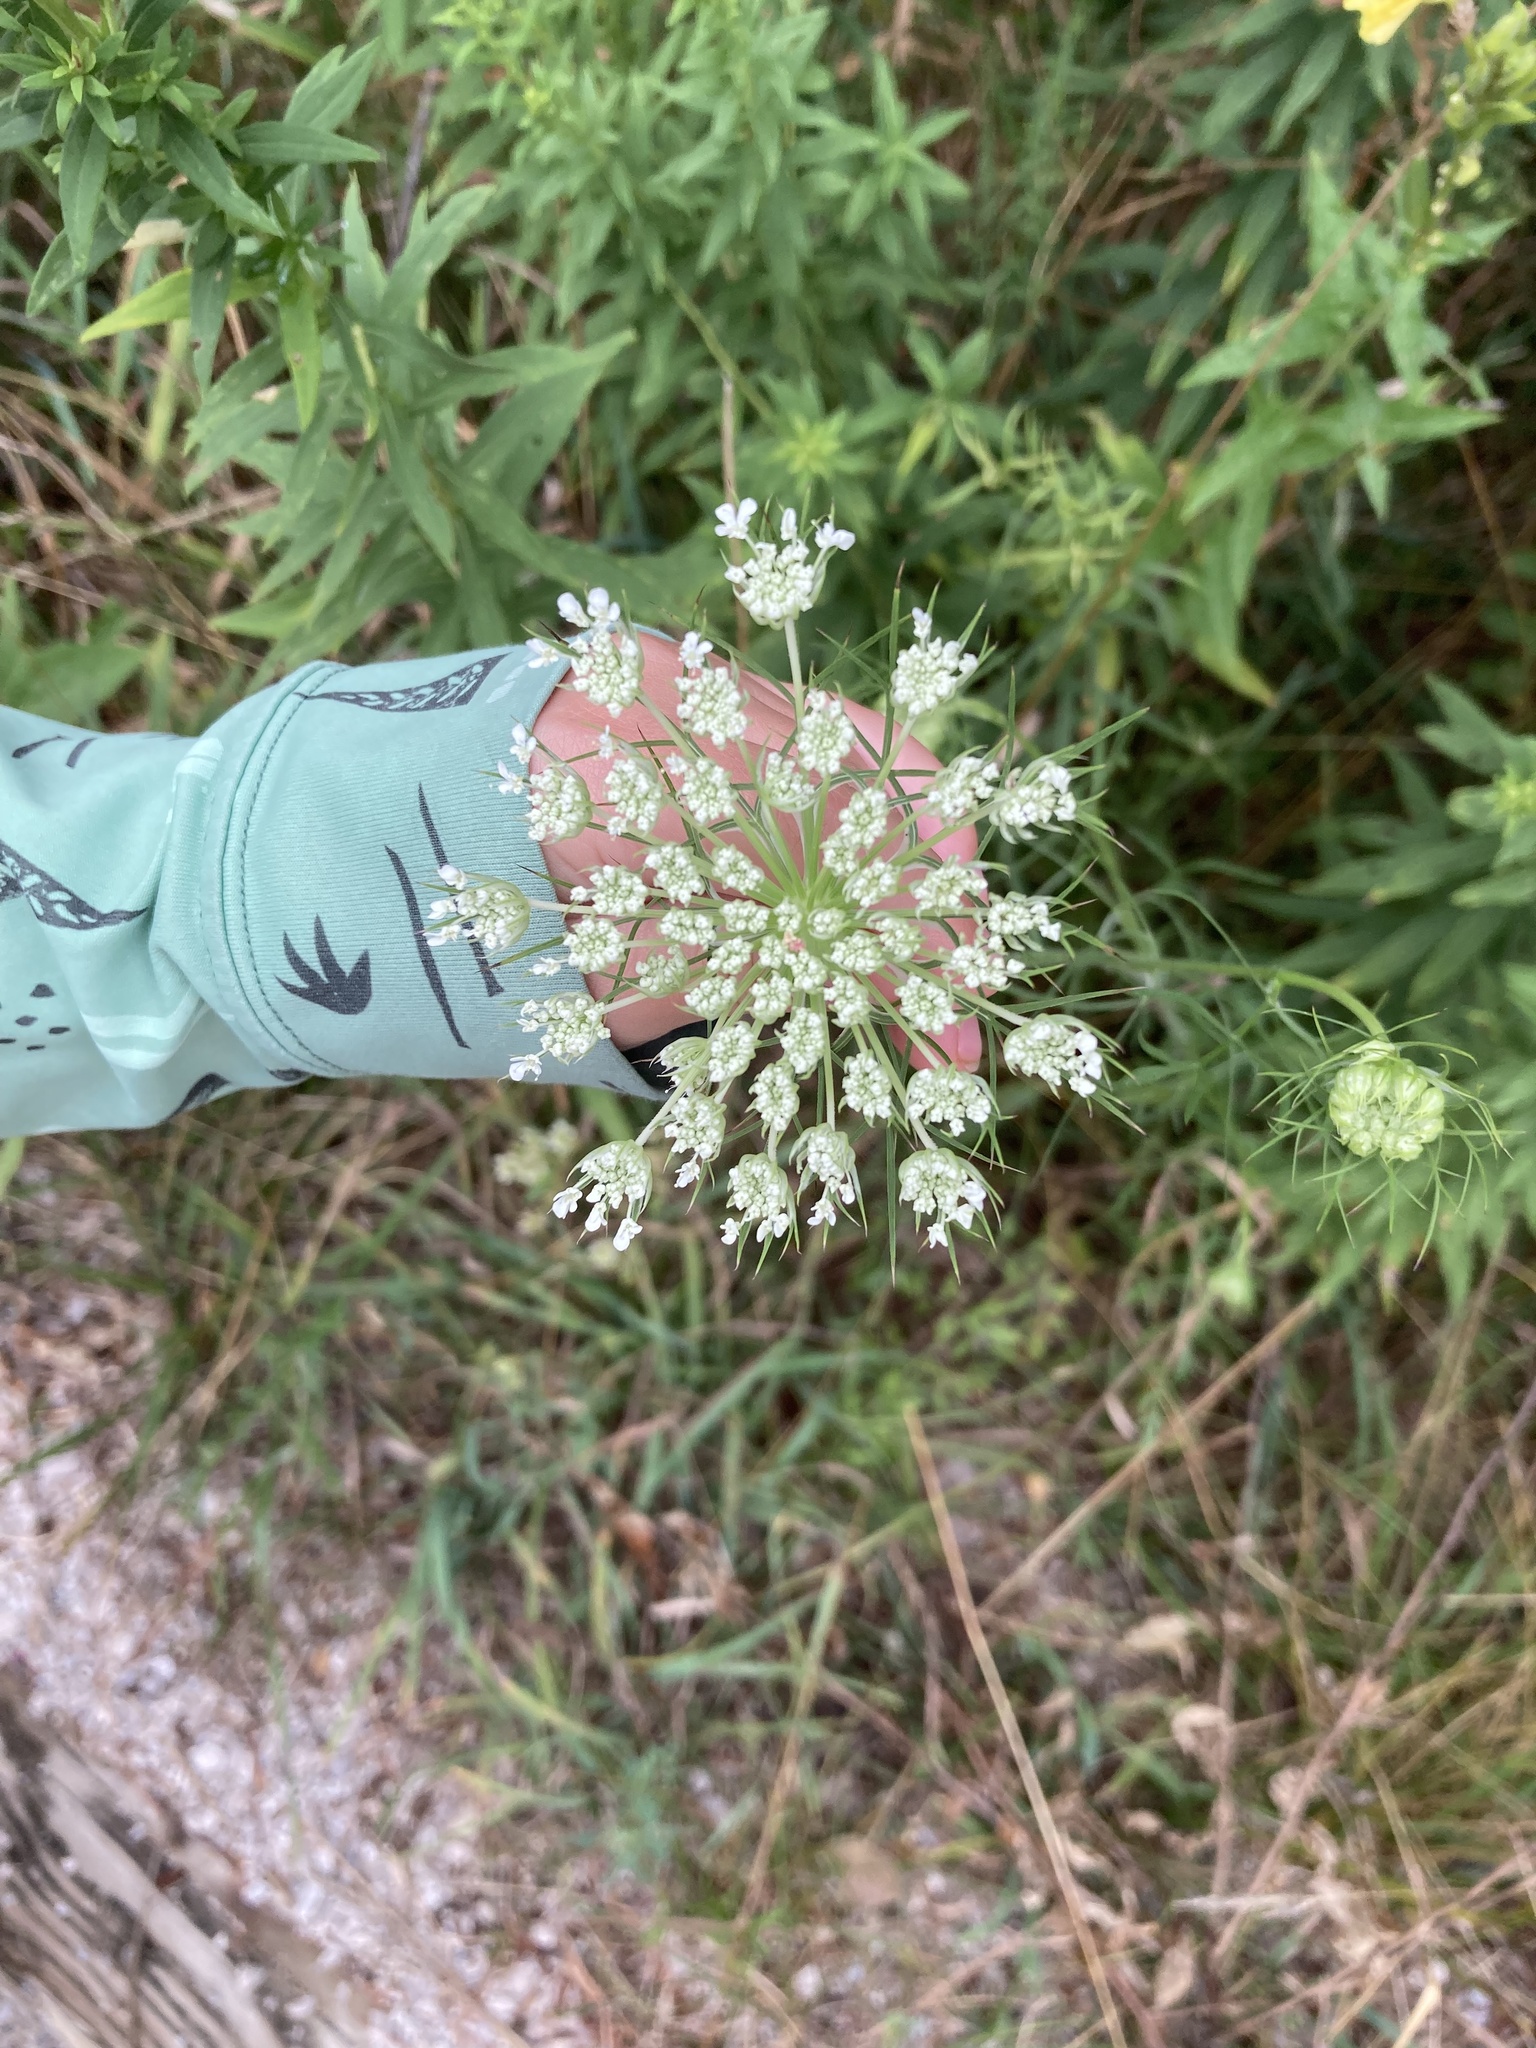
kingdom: Plantae
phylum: Tracheophyta
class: Magnoliopsida
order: Apiales
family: Apiaceae
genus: Daucus
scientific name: Daucus carota
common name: Wild carrot
